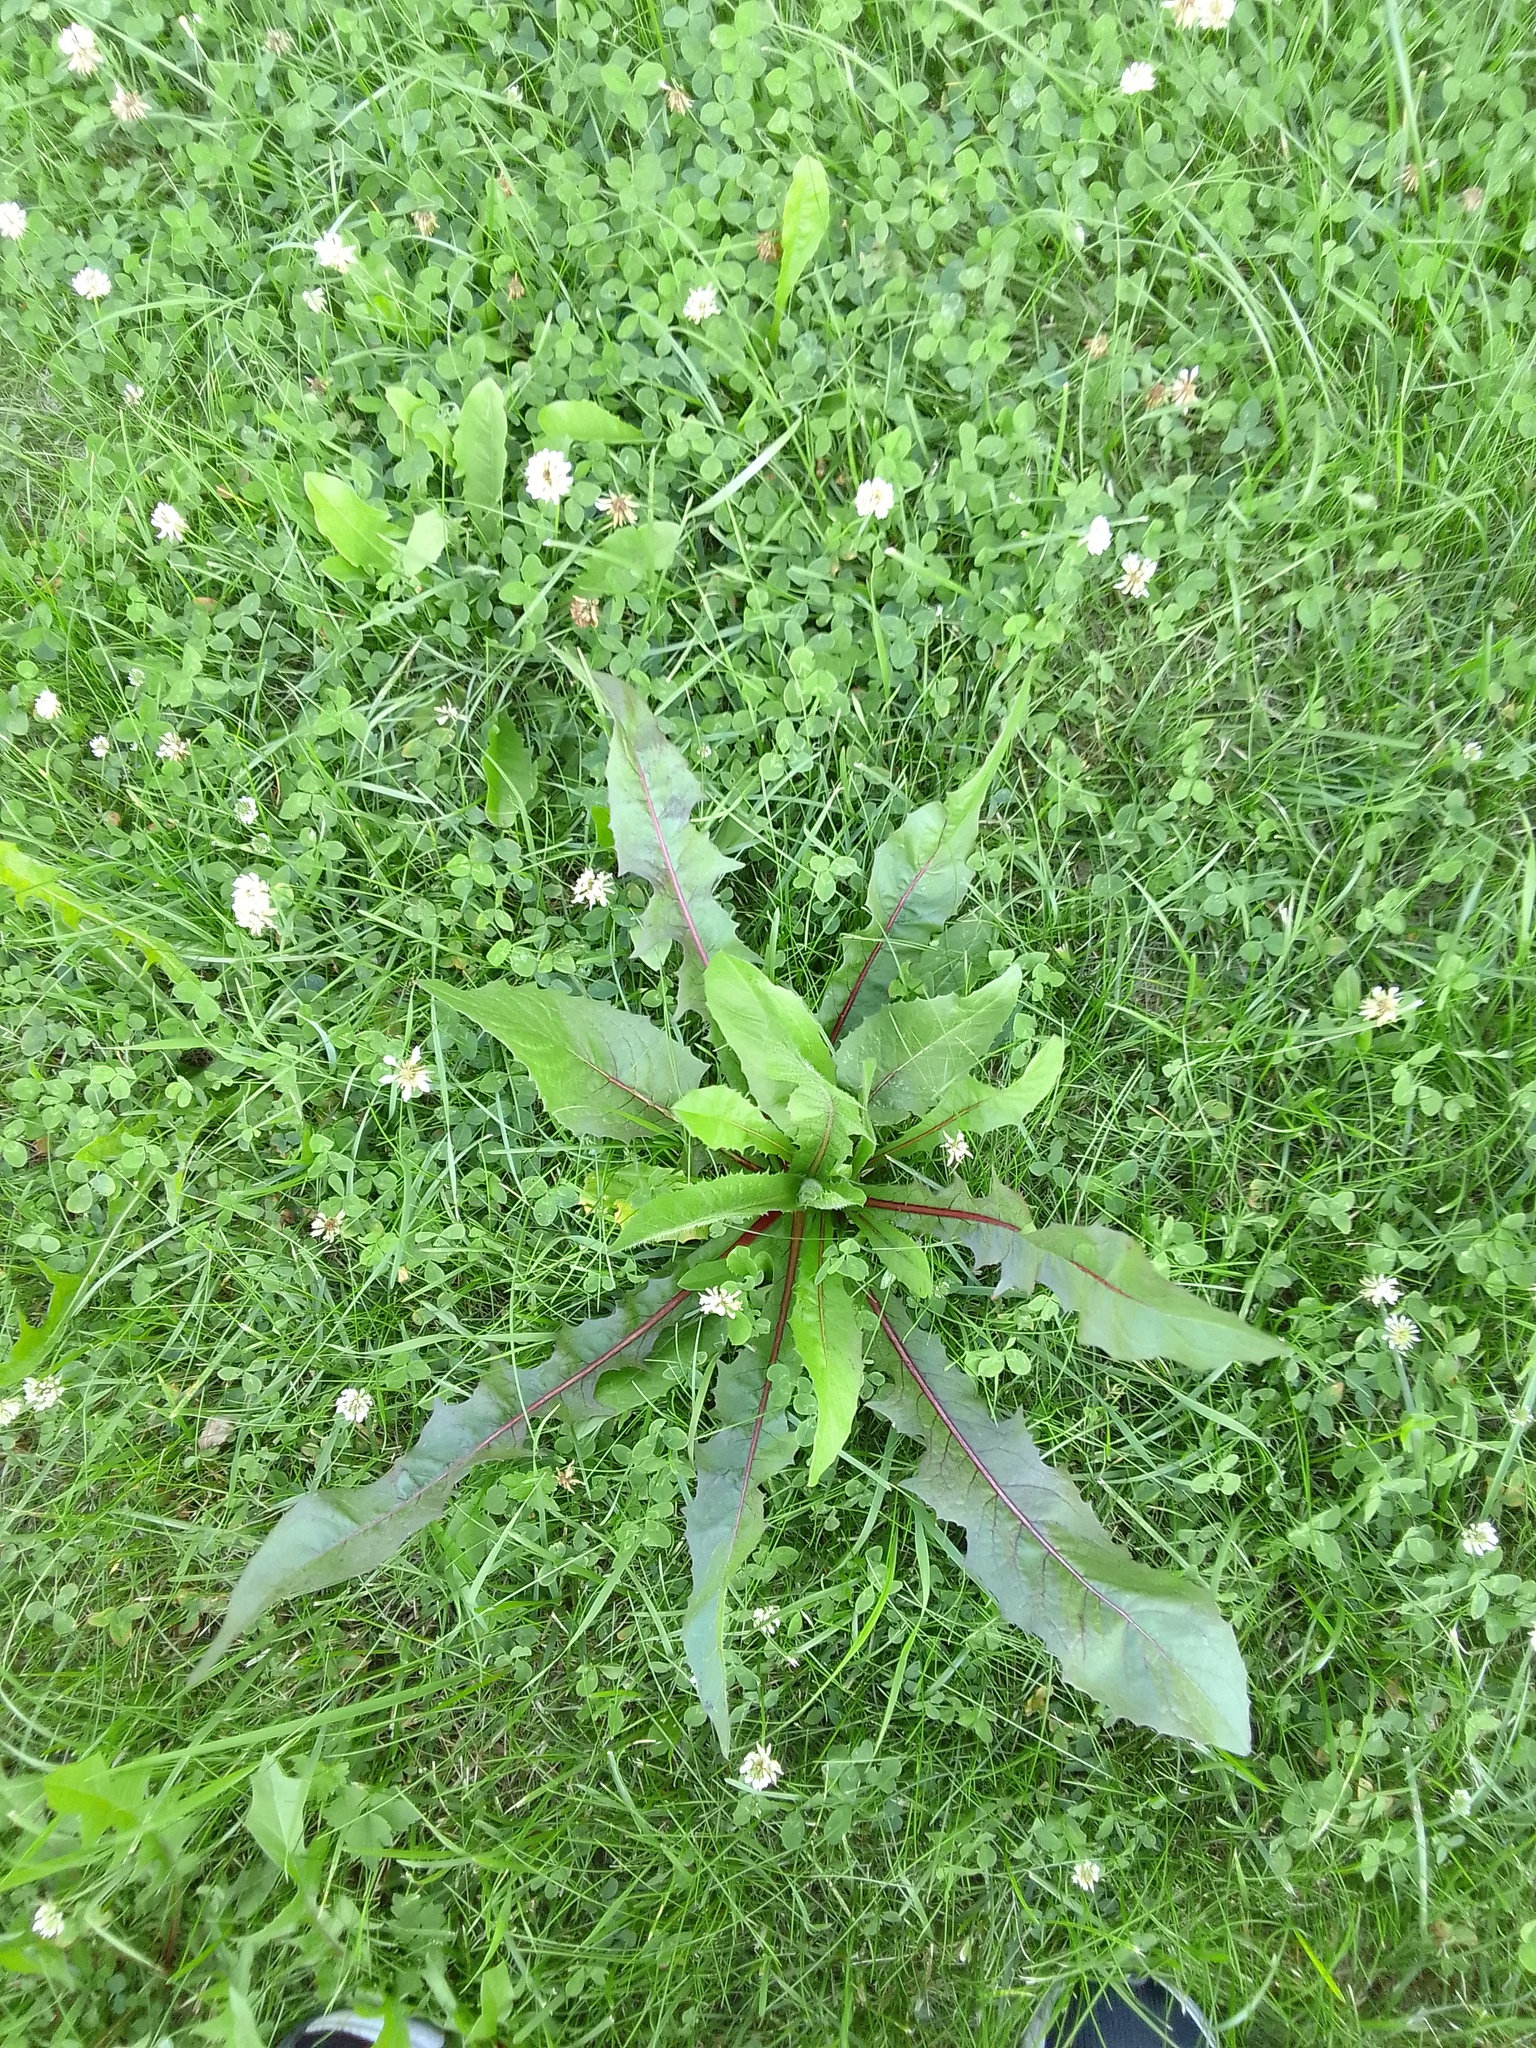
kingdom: Plantae
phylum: Tracheophyta
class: Magnoliopsida
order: Asterales
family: Asteraceae
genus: Cichorium
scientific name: Cichorium intybus
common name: Chicory
